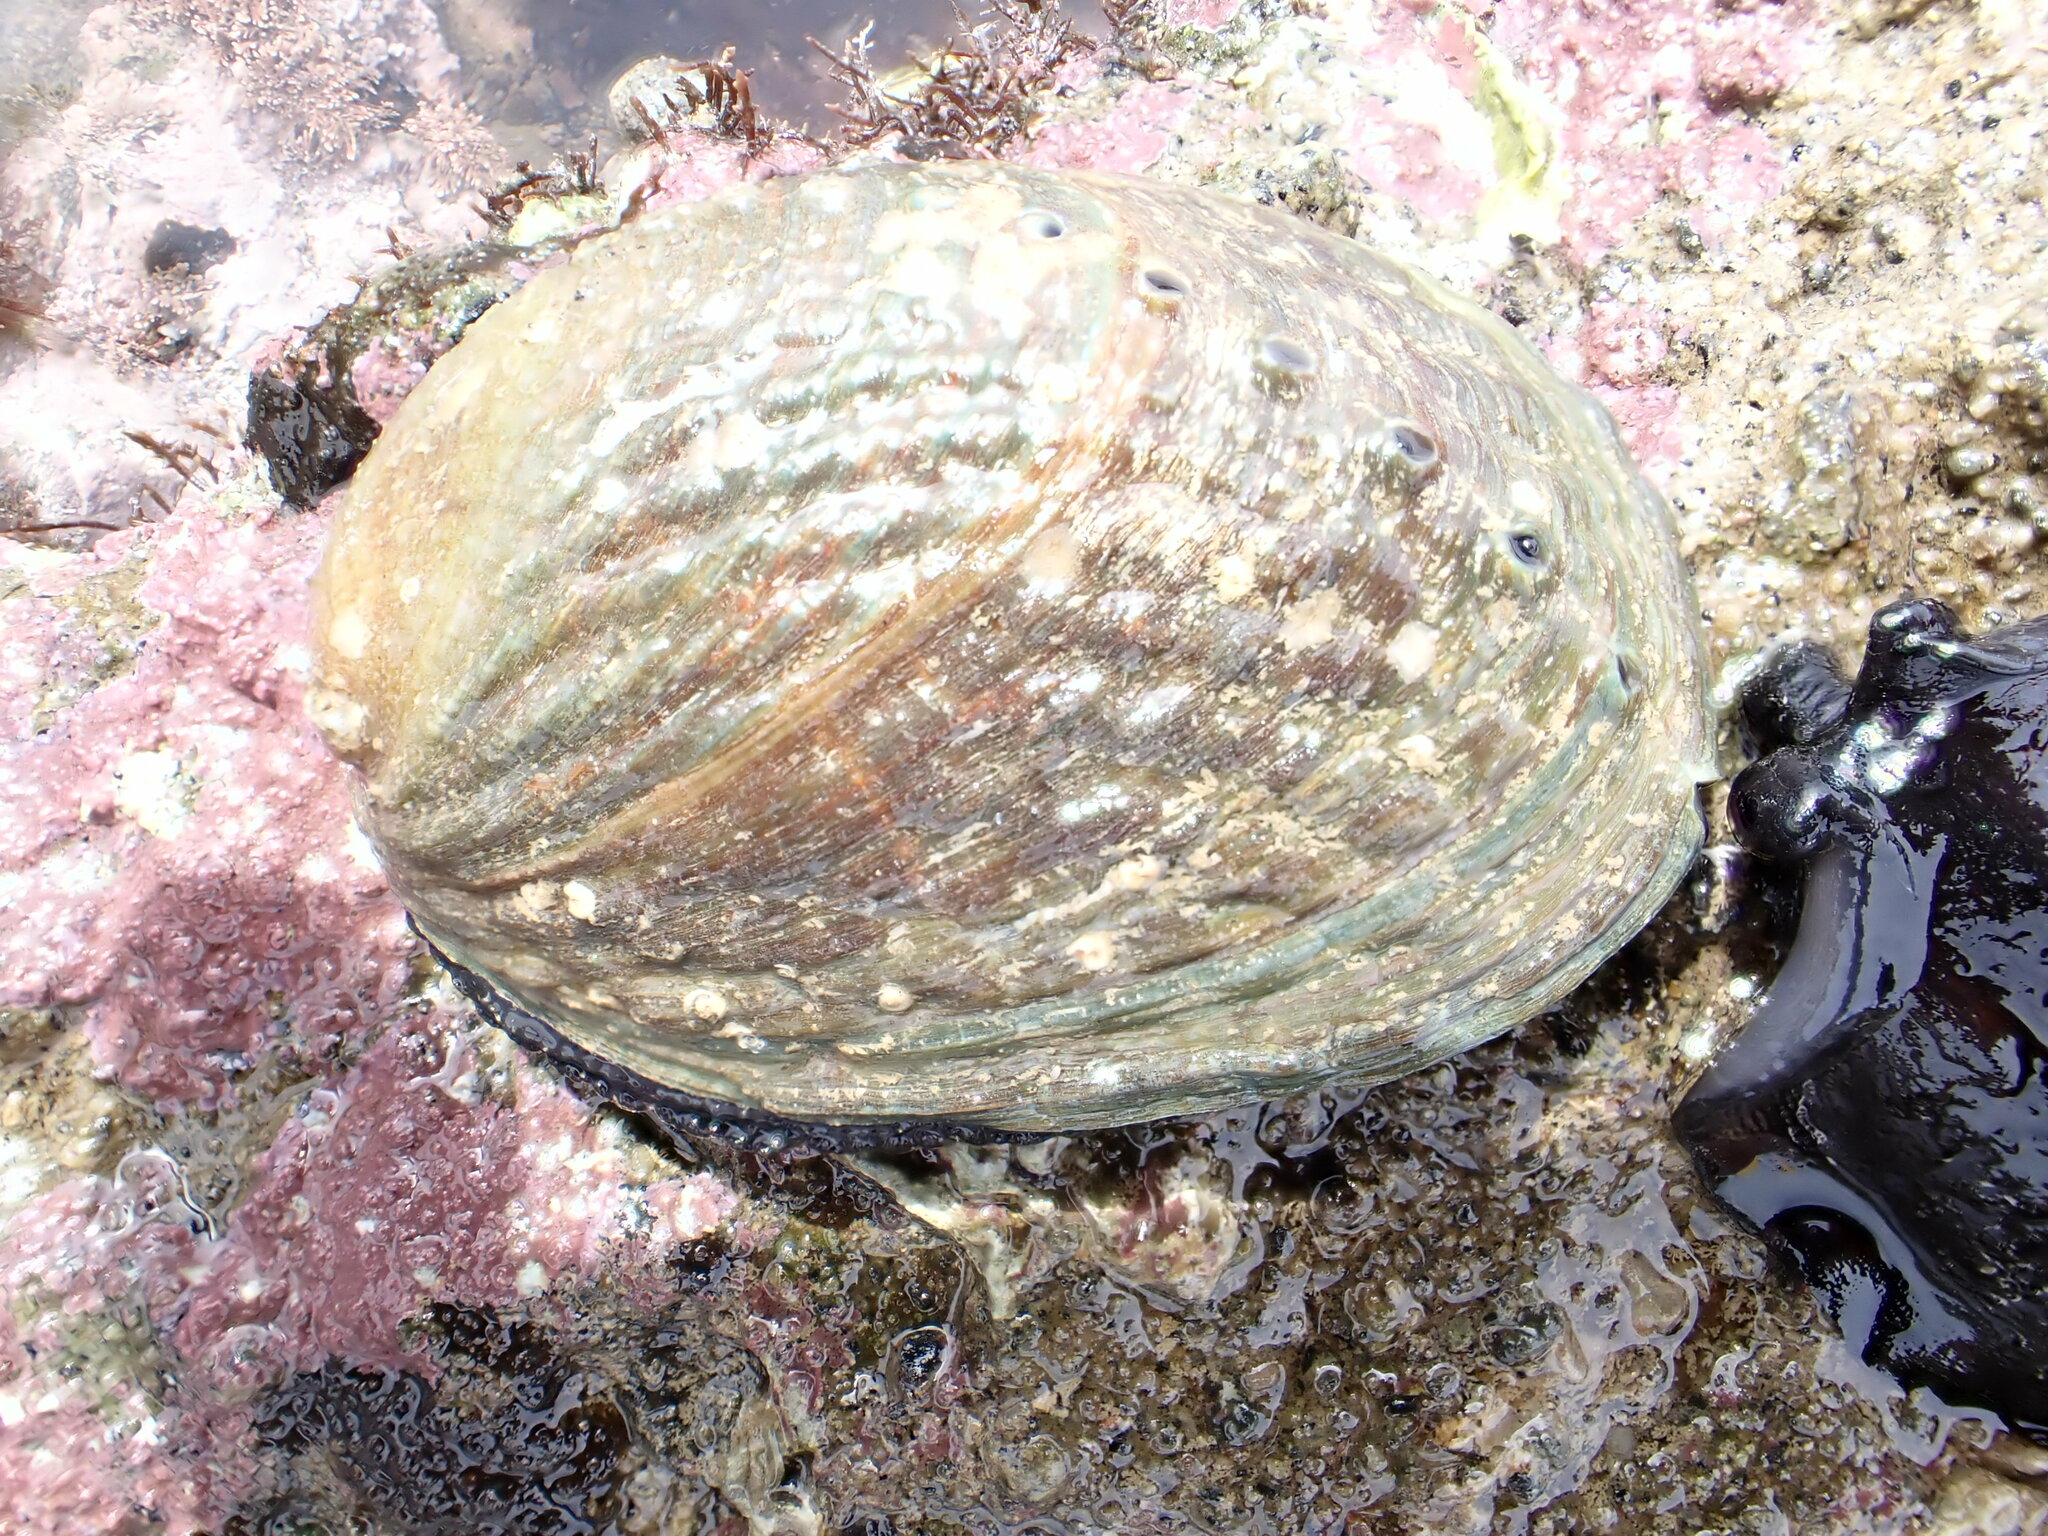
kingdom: Animalia
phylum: Mollusca
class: Gastropoda
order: Lepetellida
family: Haliotidae
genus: Haliotis
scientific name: Haliotis iris
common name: Abalone
